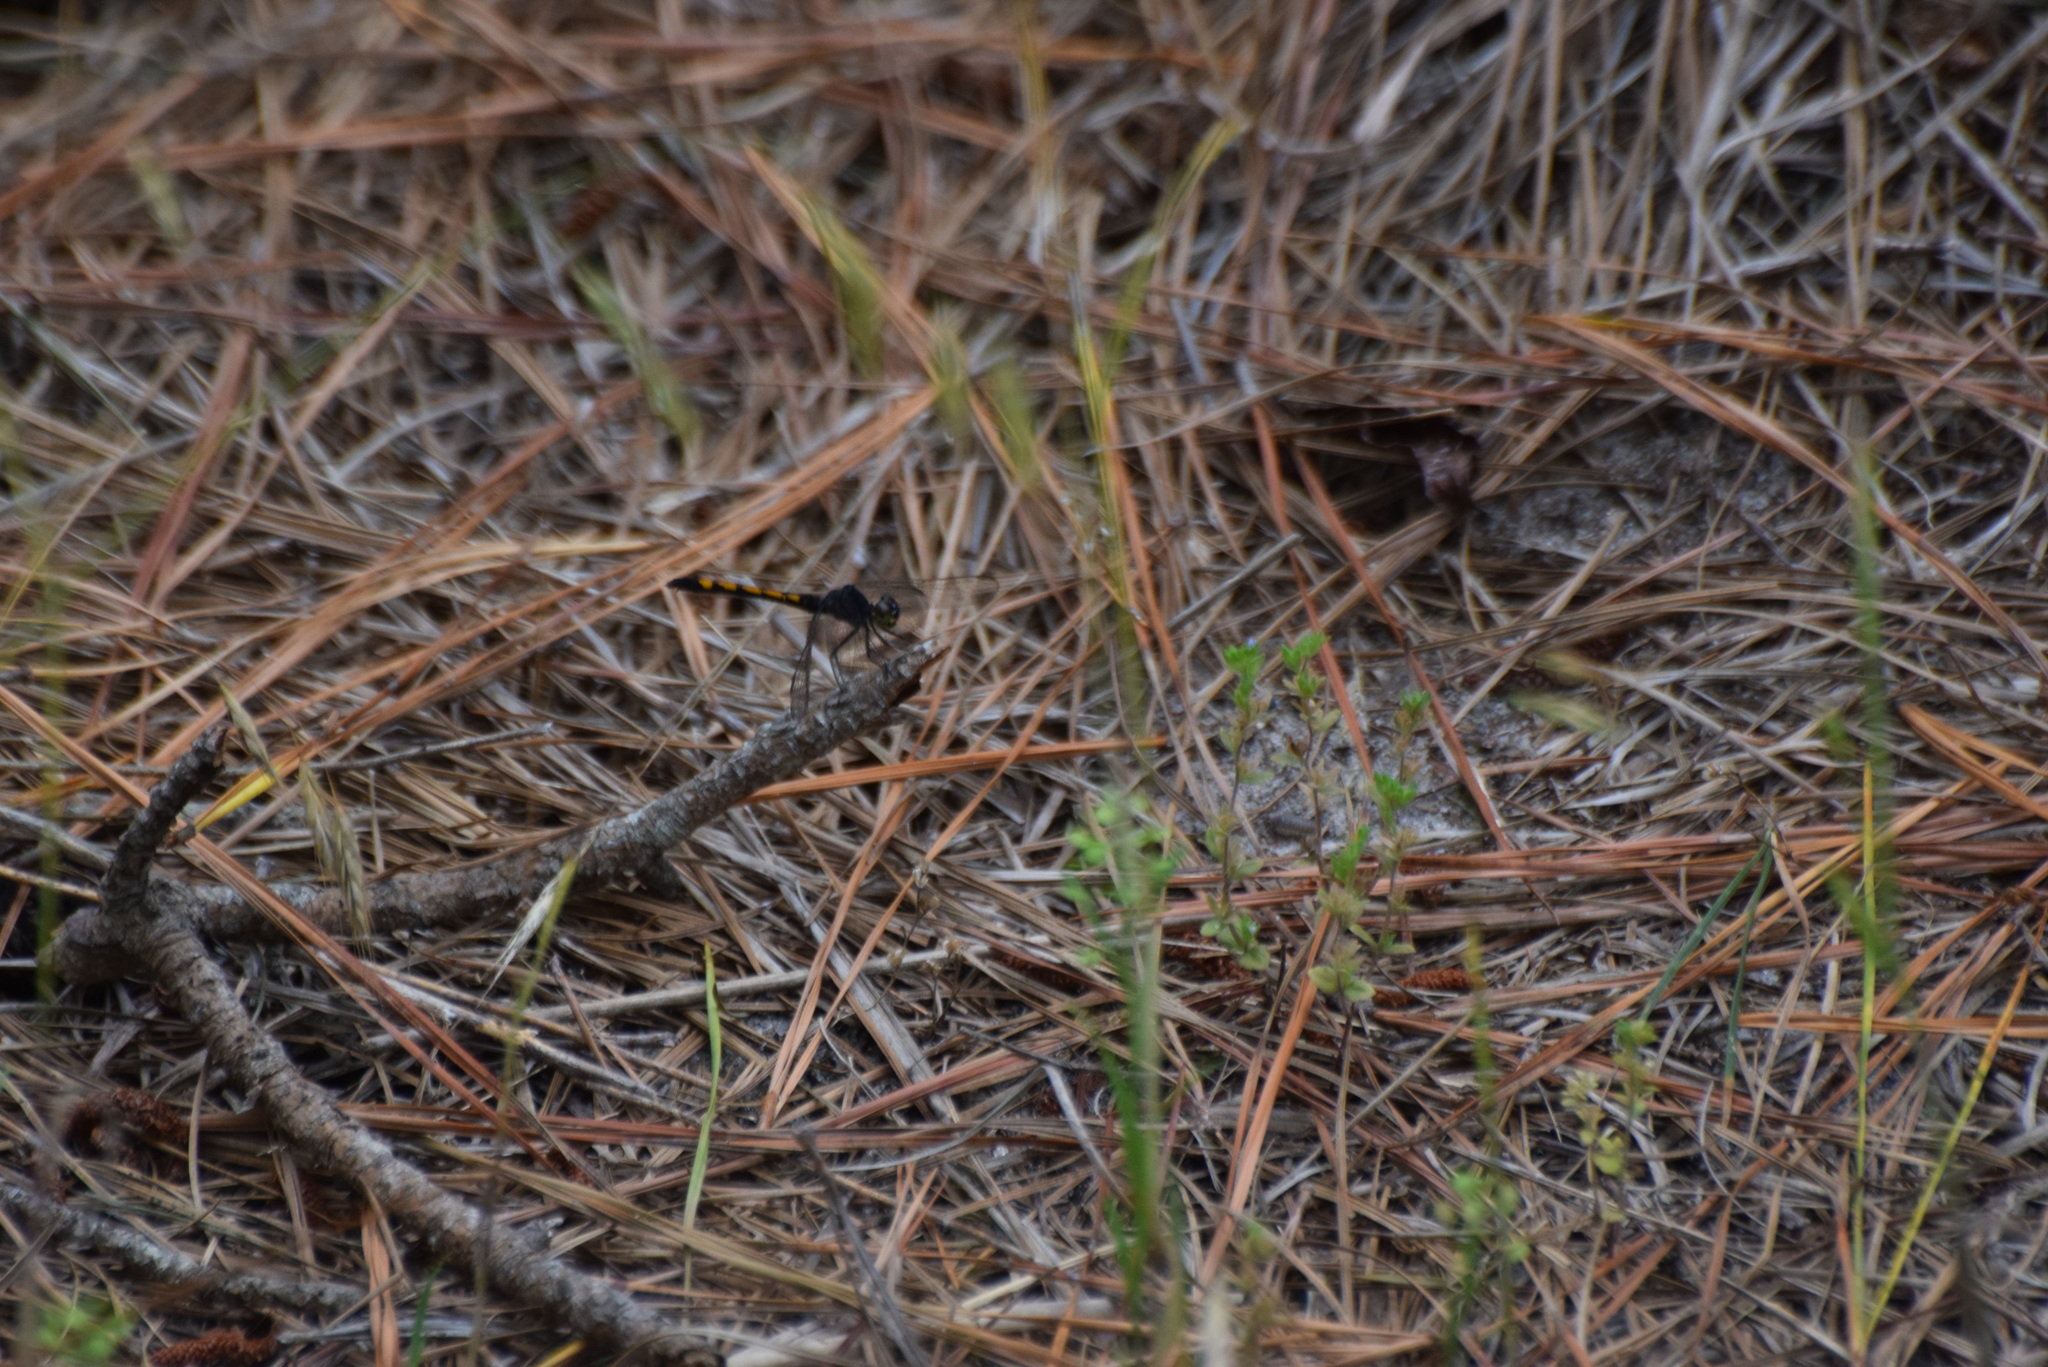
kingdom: Animalia
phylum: Arthropoda
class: Insecta
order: Odonata
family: Libellulidae
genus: Erythrodiplax
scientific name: Erythrodiplax berenice
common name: Seaside dragonlet
